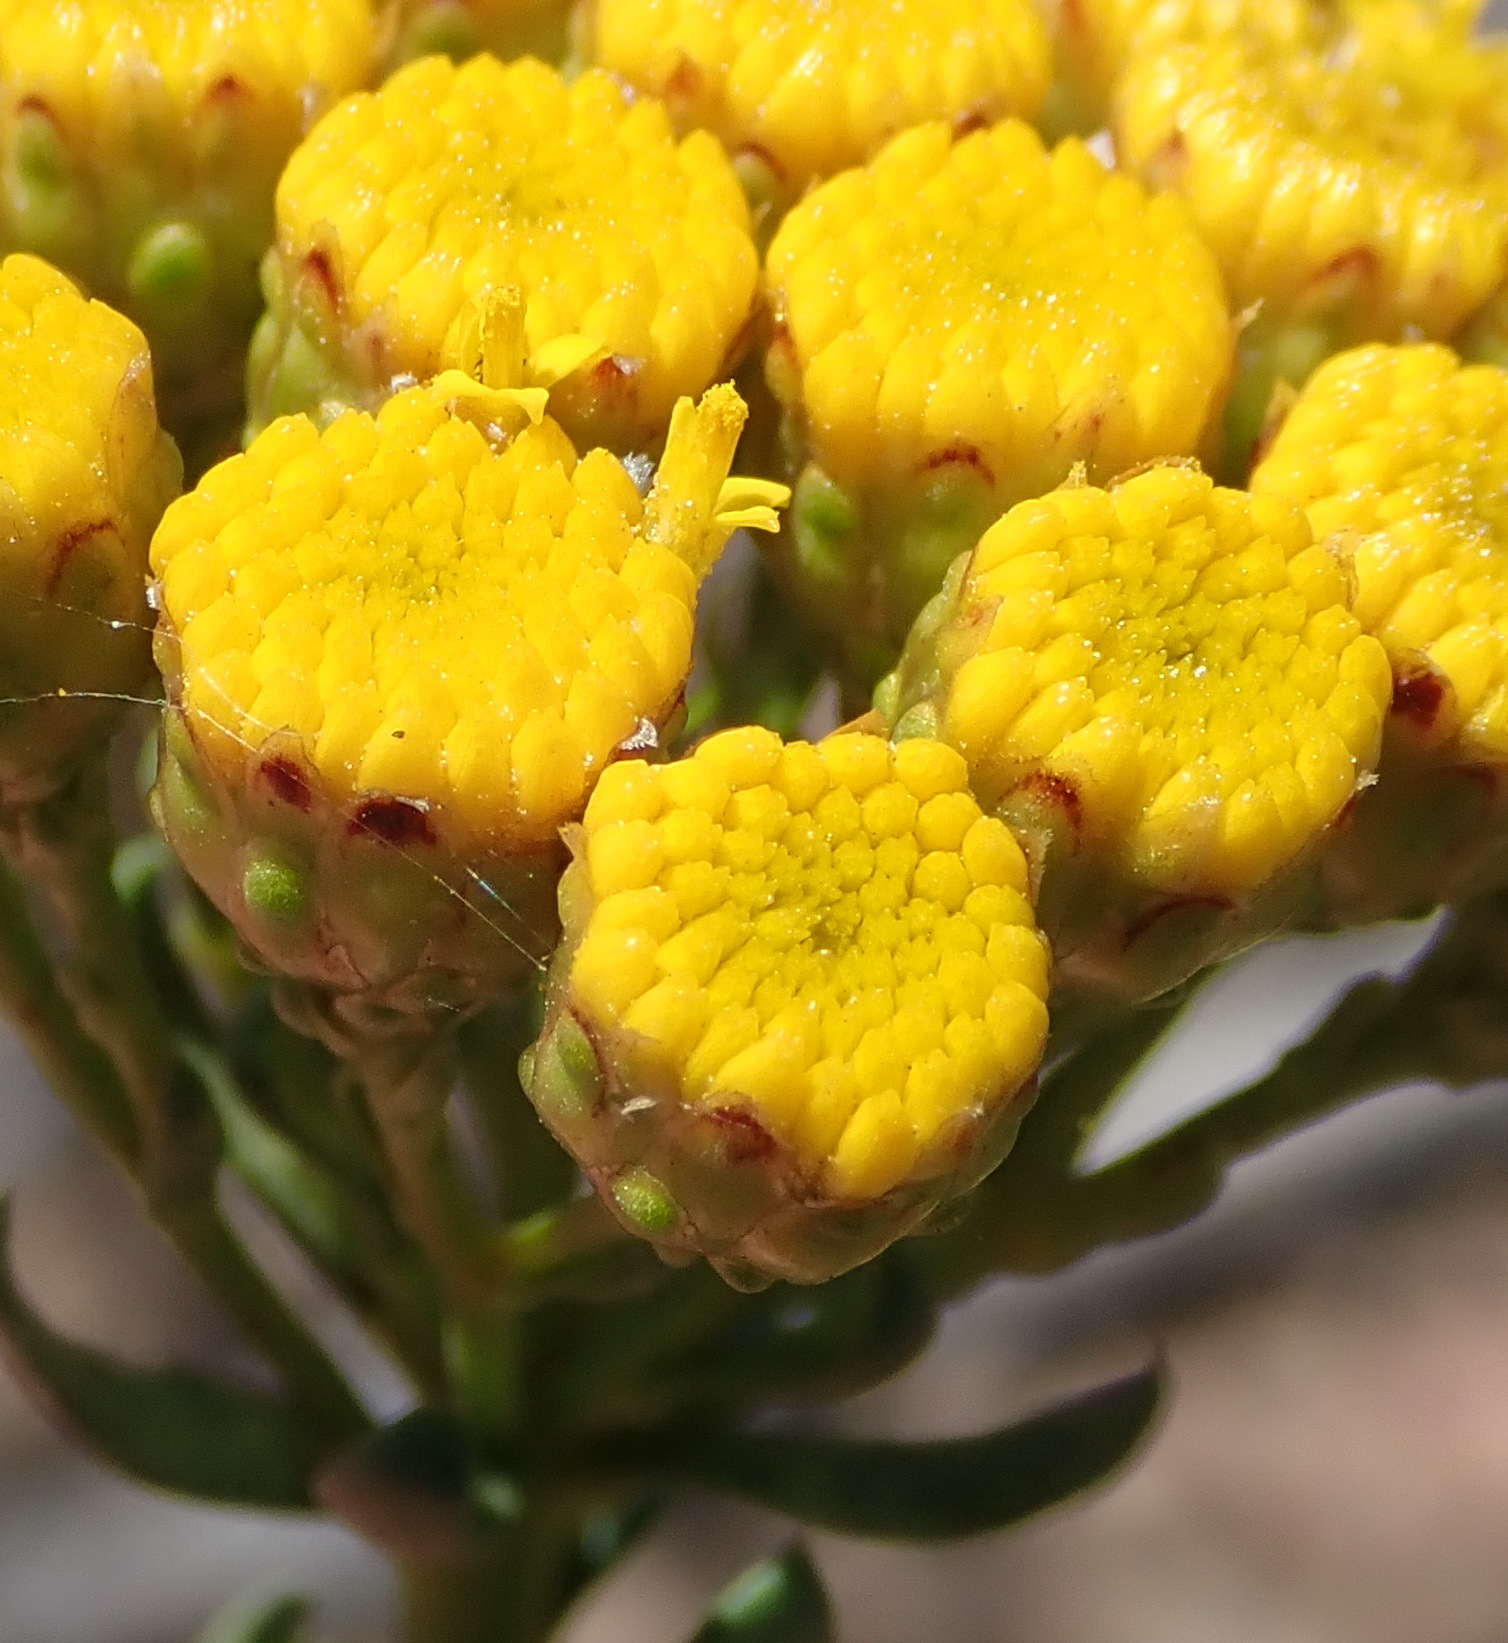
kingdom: Plantae
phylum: Tracheophyta
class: Magnoliopsida
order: Asterales
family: Asteraceae
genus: Athanasia
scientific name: Athanasia trifurcata
